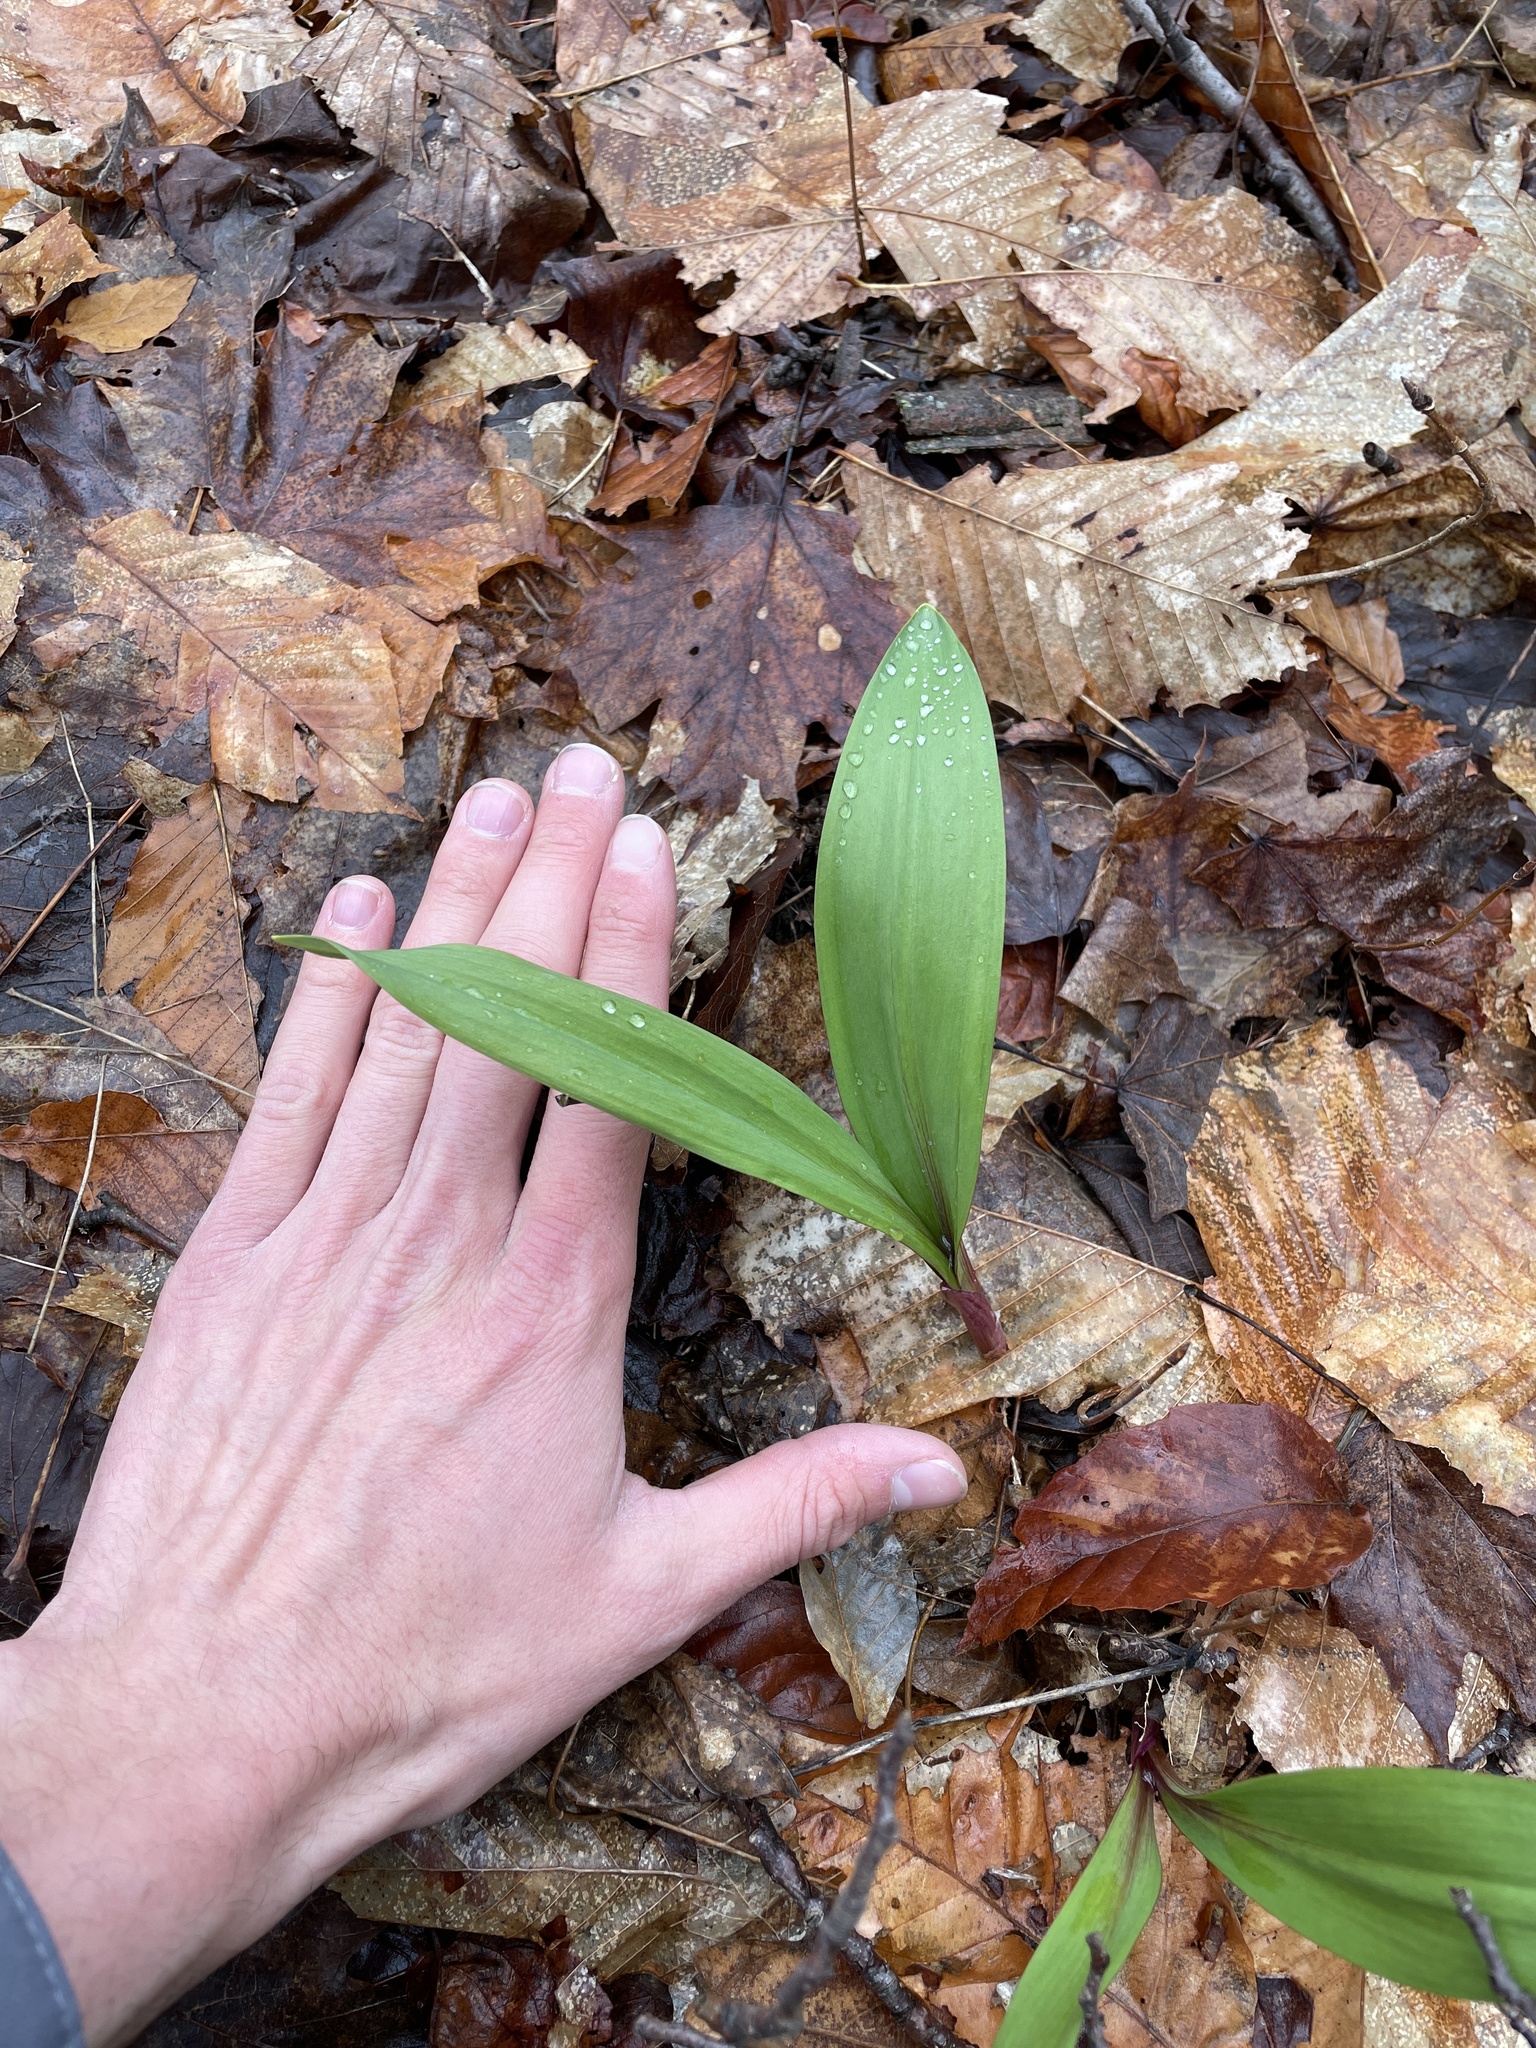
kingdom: Plantae
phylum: Tracheophyta
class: Liliopsida
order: Asparagales
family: Amaryllidaceae
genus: Allium
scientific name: Allium tricoccum
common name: Ramp
